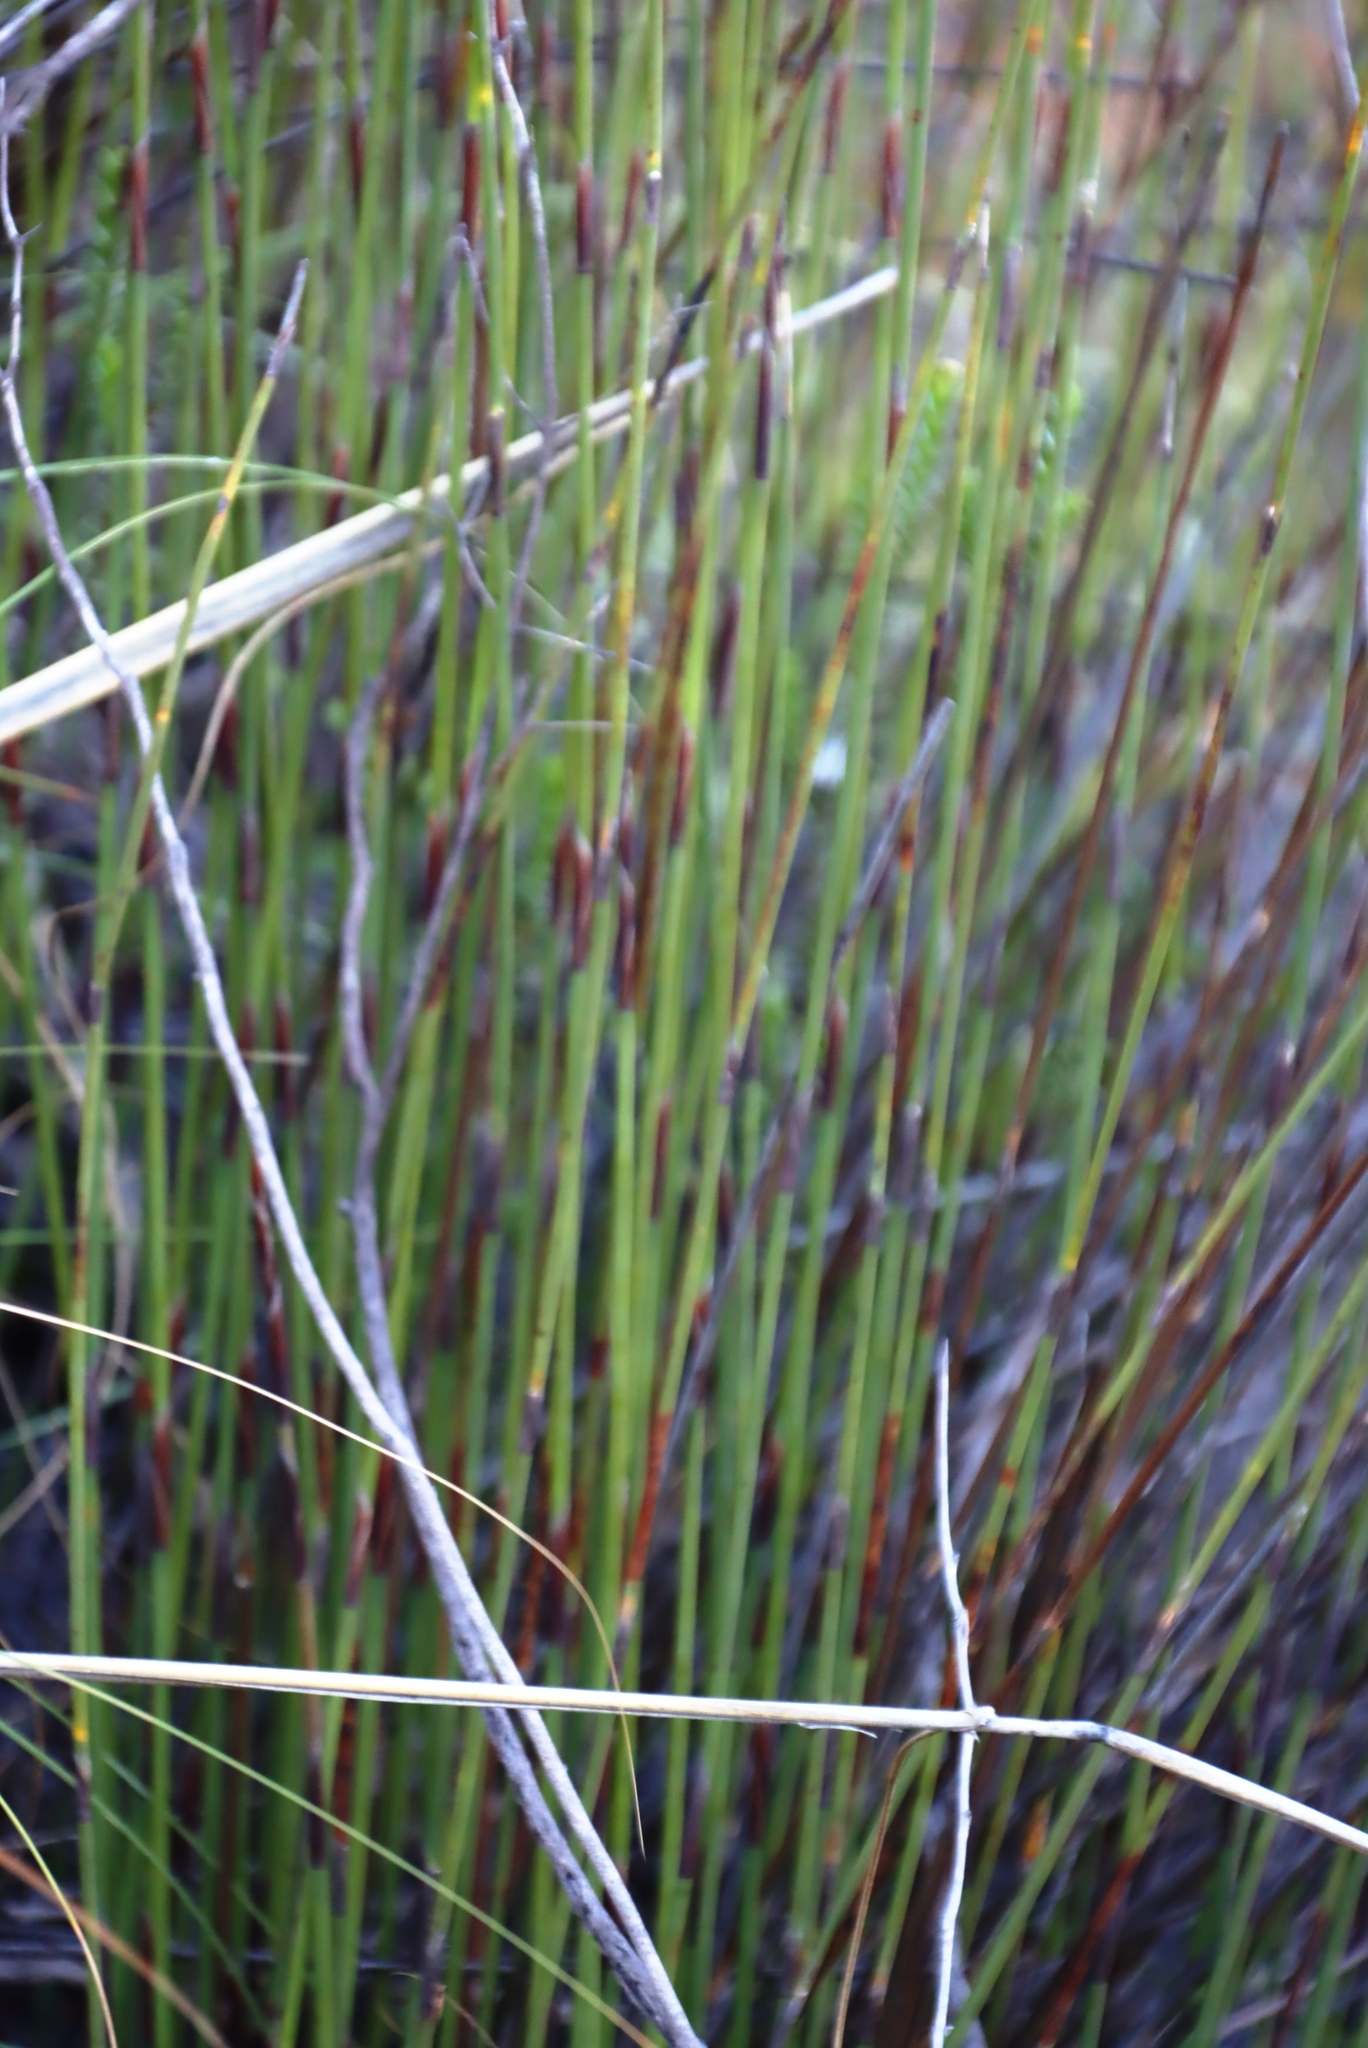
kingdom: Plantae
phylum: Tracheophyta
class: Liliopsida
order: Poales
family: Restionaceae
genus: Cannomois
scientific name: Cannomois scirpoides
